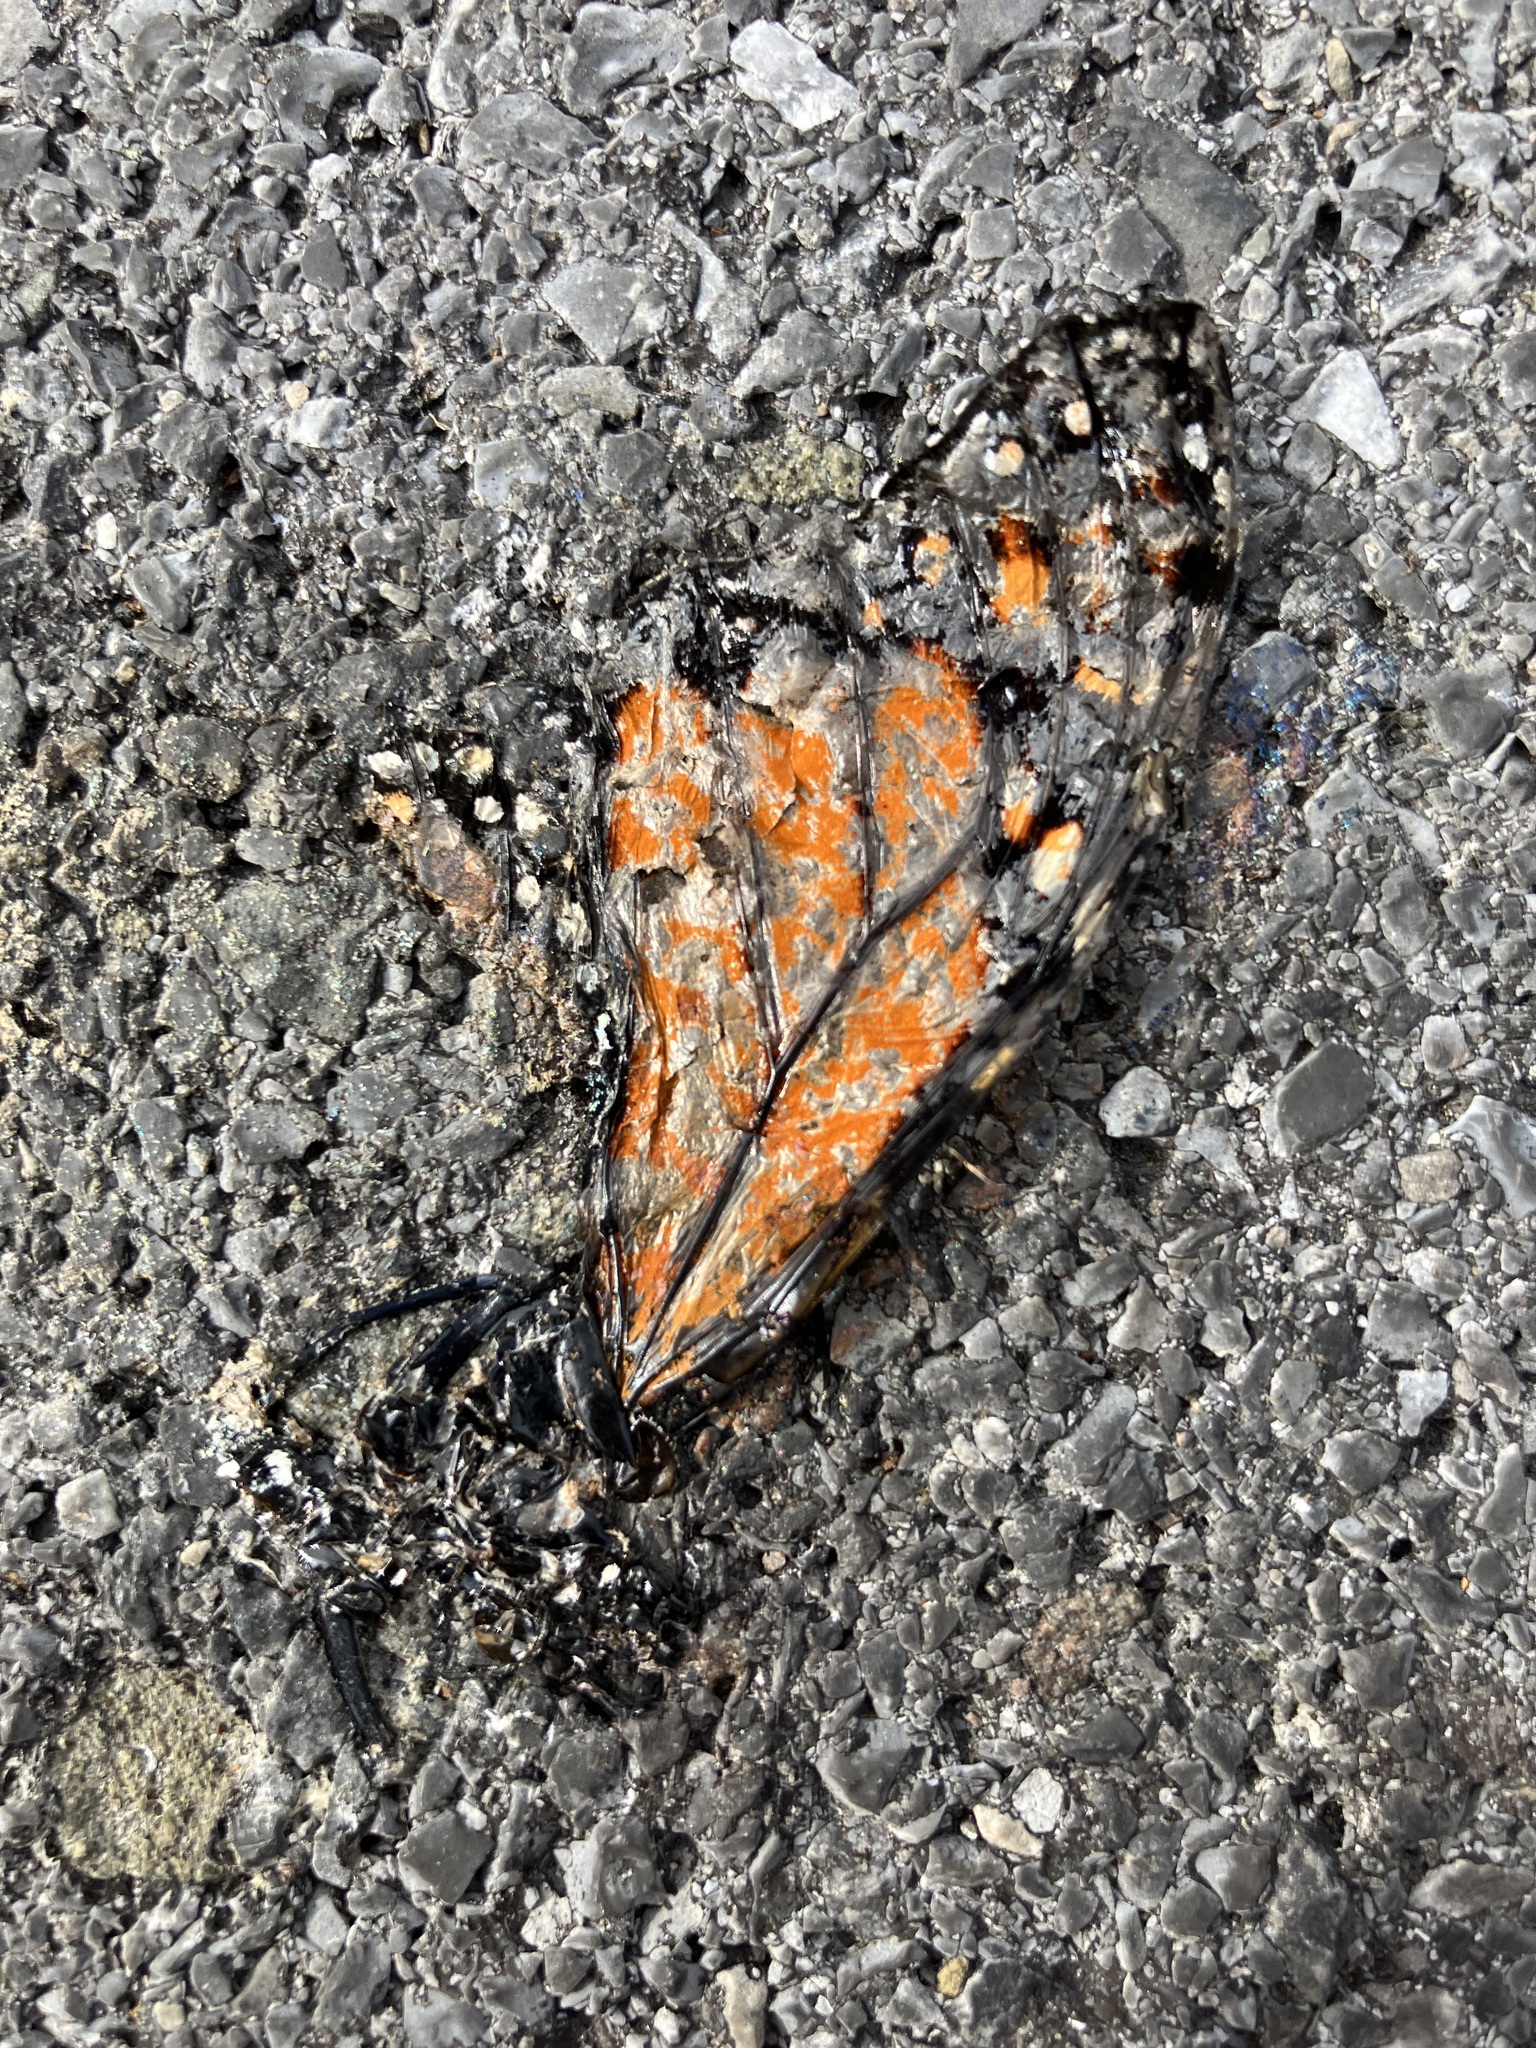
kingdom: Animalia
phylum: Arthropoda
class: Insecta
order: Lepidoptera
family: Nymphalidae
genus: Danaus
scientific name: Danaus plexippus
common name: Monarch
